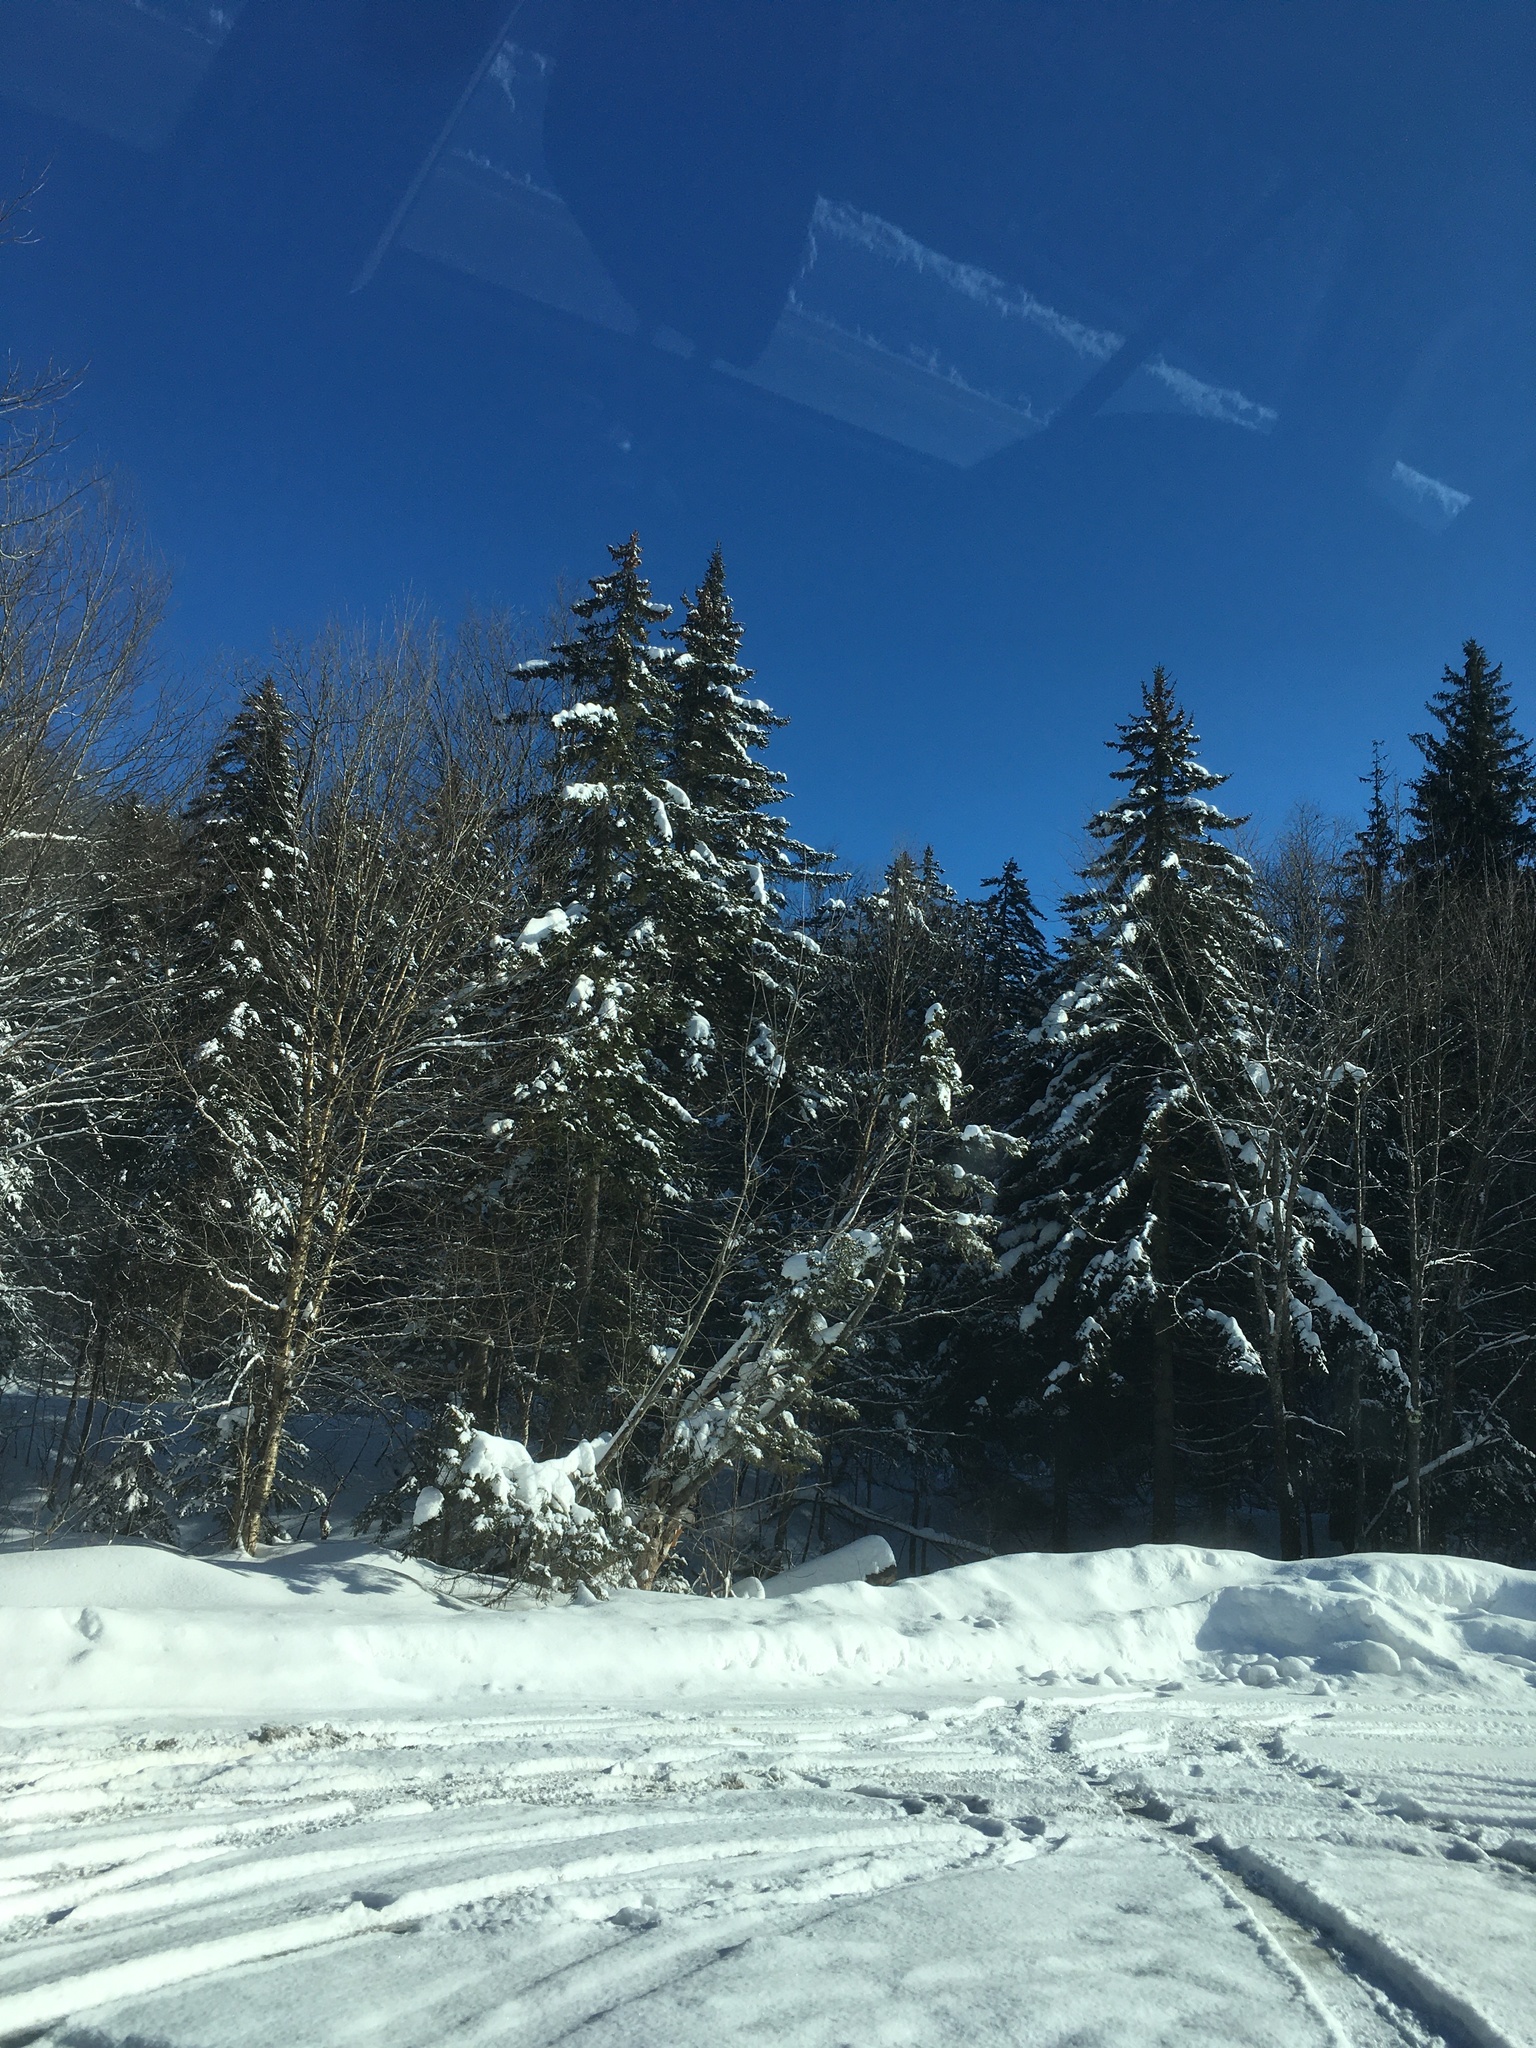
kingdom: Plantae
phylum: Tracheophyta
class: Pinopsida
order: Pinales
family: Pinaceae
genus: Picea
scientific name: Picea rubens
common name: Red spruce
